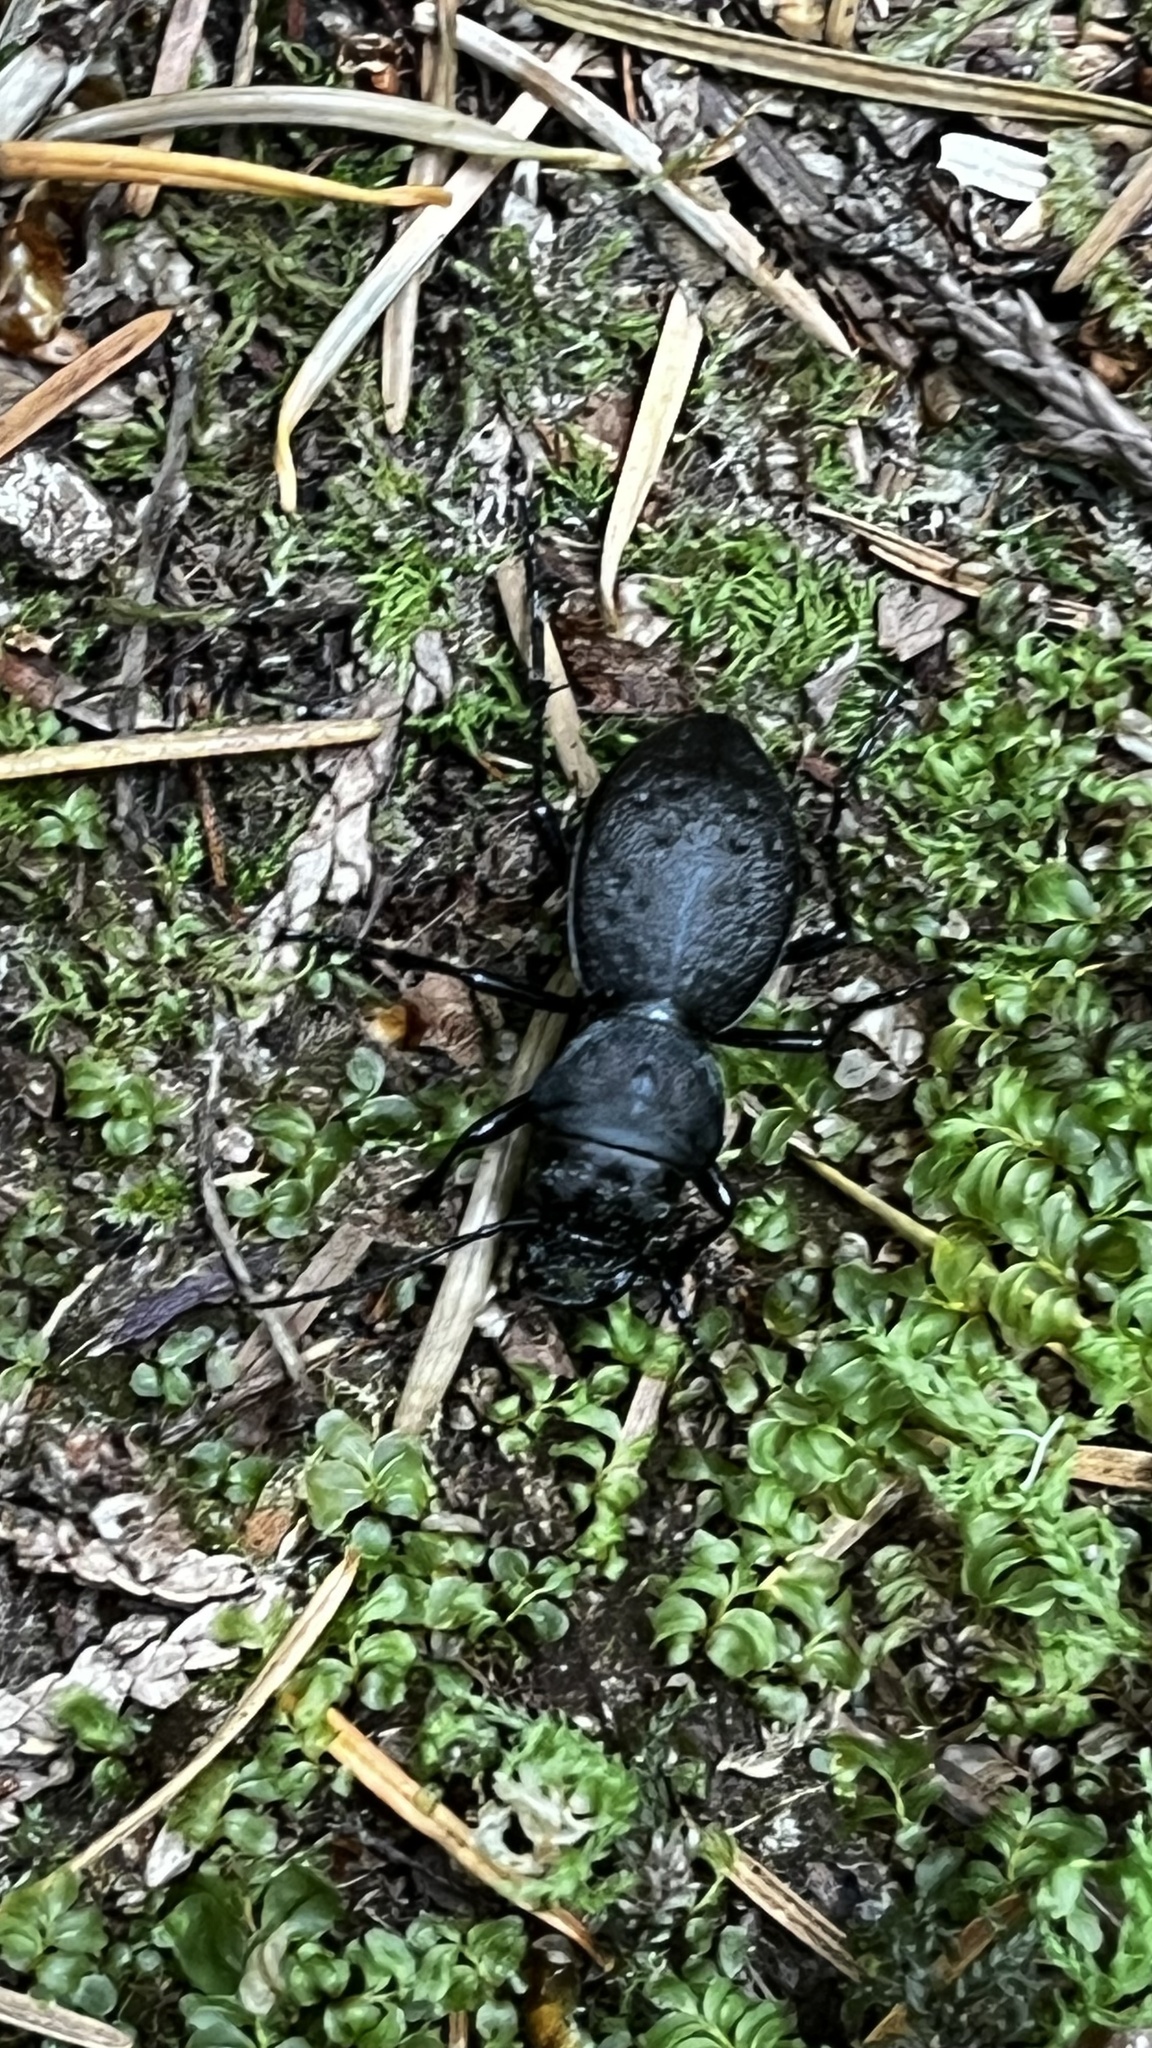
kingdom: Animalia
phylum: Arthropoda
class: Insecta
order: Coleoptera
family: Carabidae
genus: Omus
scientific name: Omus dejeanii
